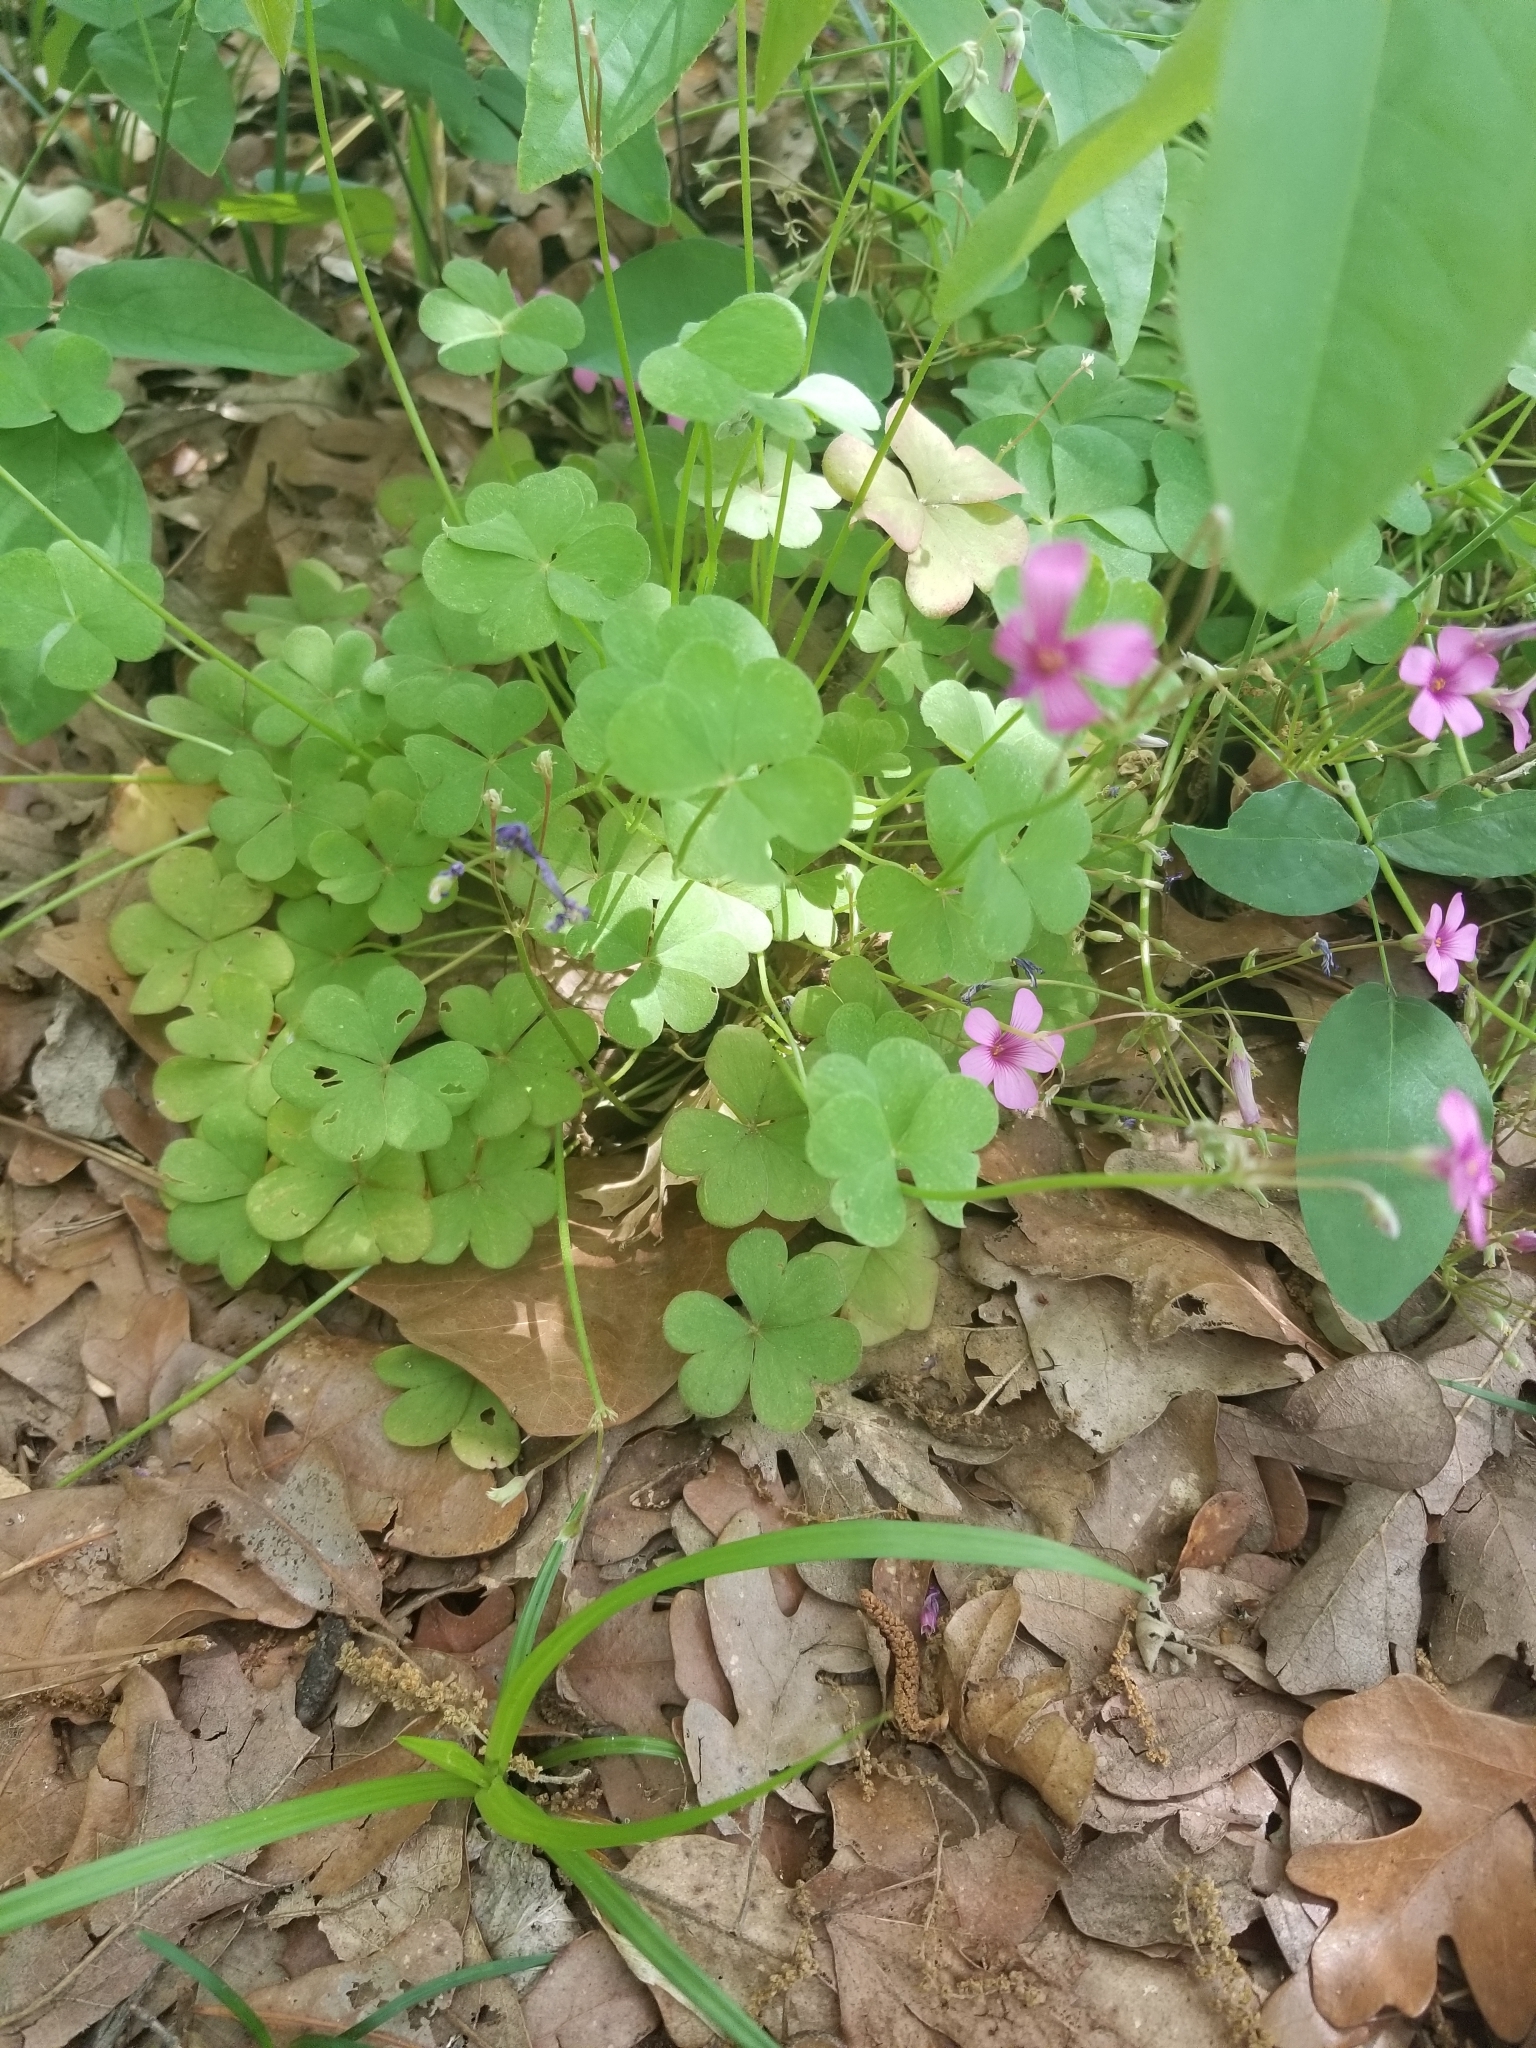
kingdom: Plantae
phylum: Tracheophyta
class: Magnoliopsida
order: Oxalidales
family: Oxalidaceae
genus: Oxalis
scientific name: Oxalis articulata
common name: Pink-sorrel
